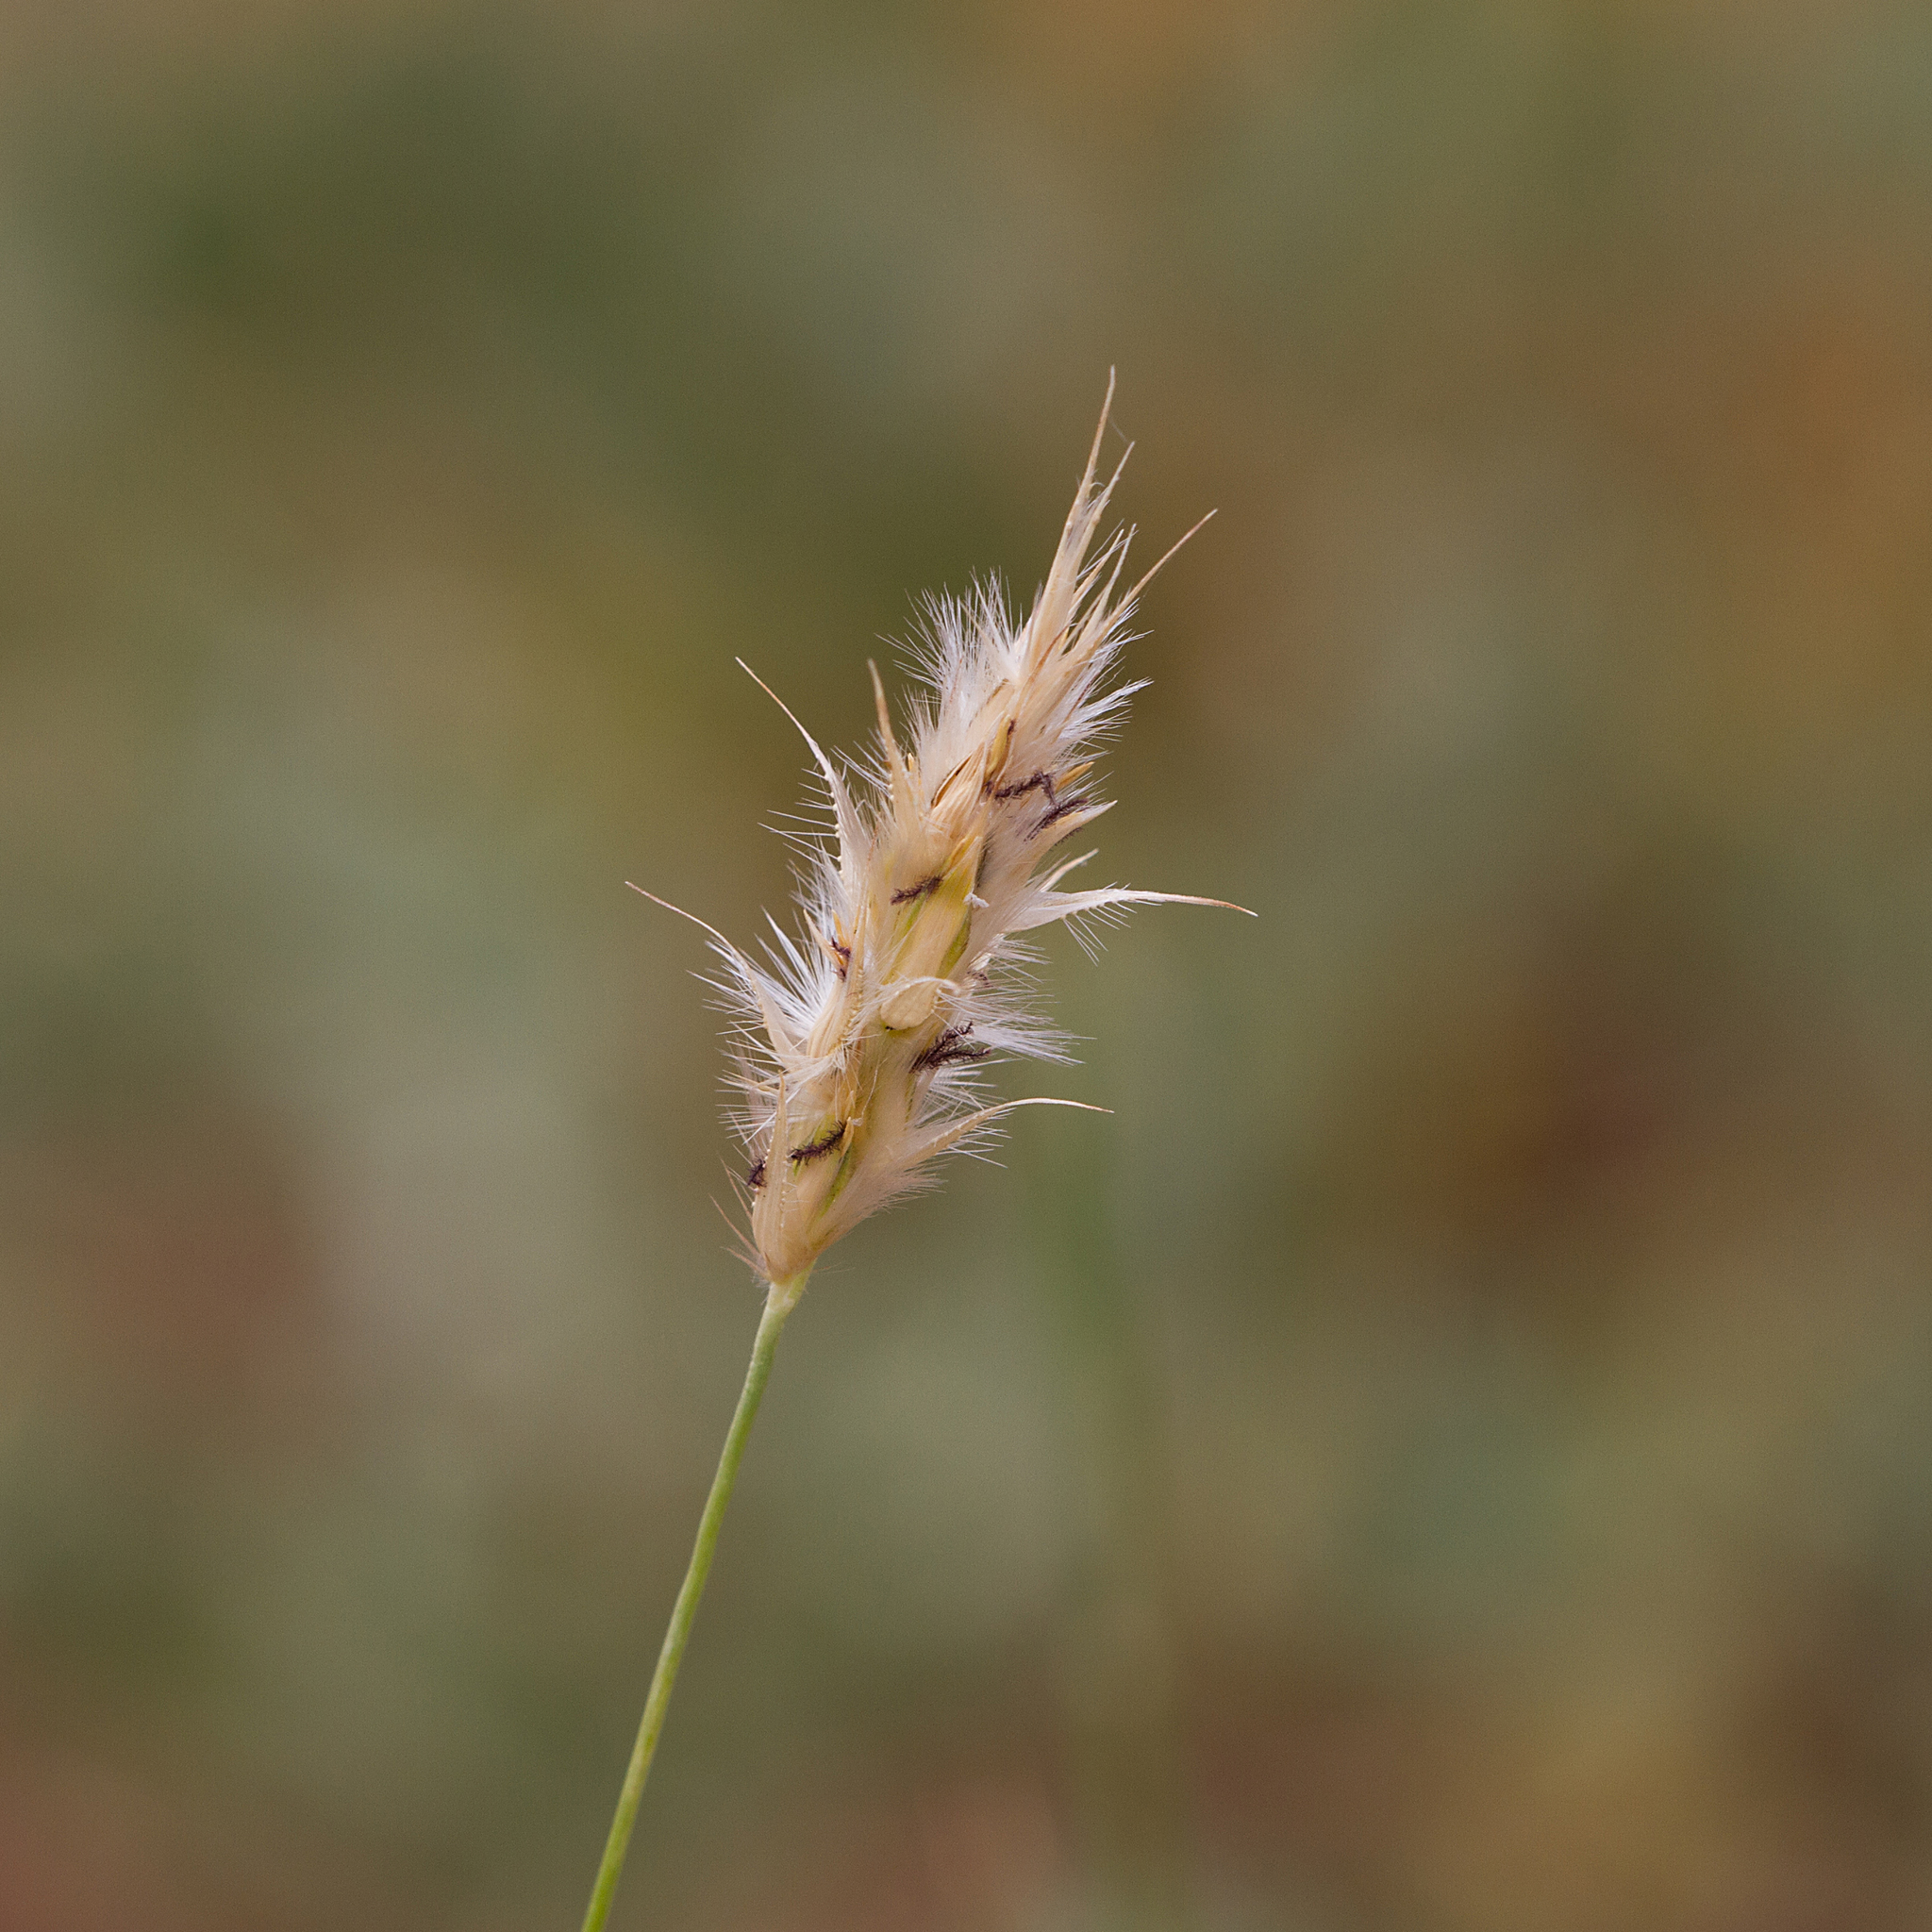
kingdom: Plantae
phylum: Tracheophyta
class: Liliopsida
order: Poales
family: Poaceae
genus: Neurachne
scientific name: Neurachne muelleri
